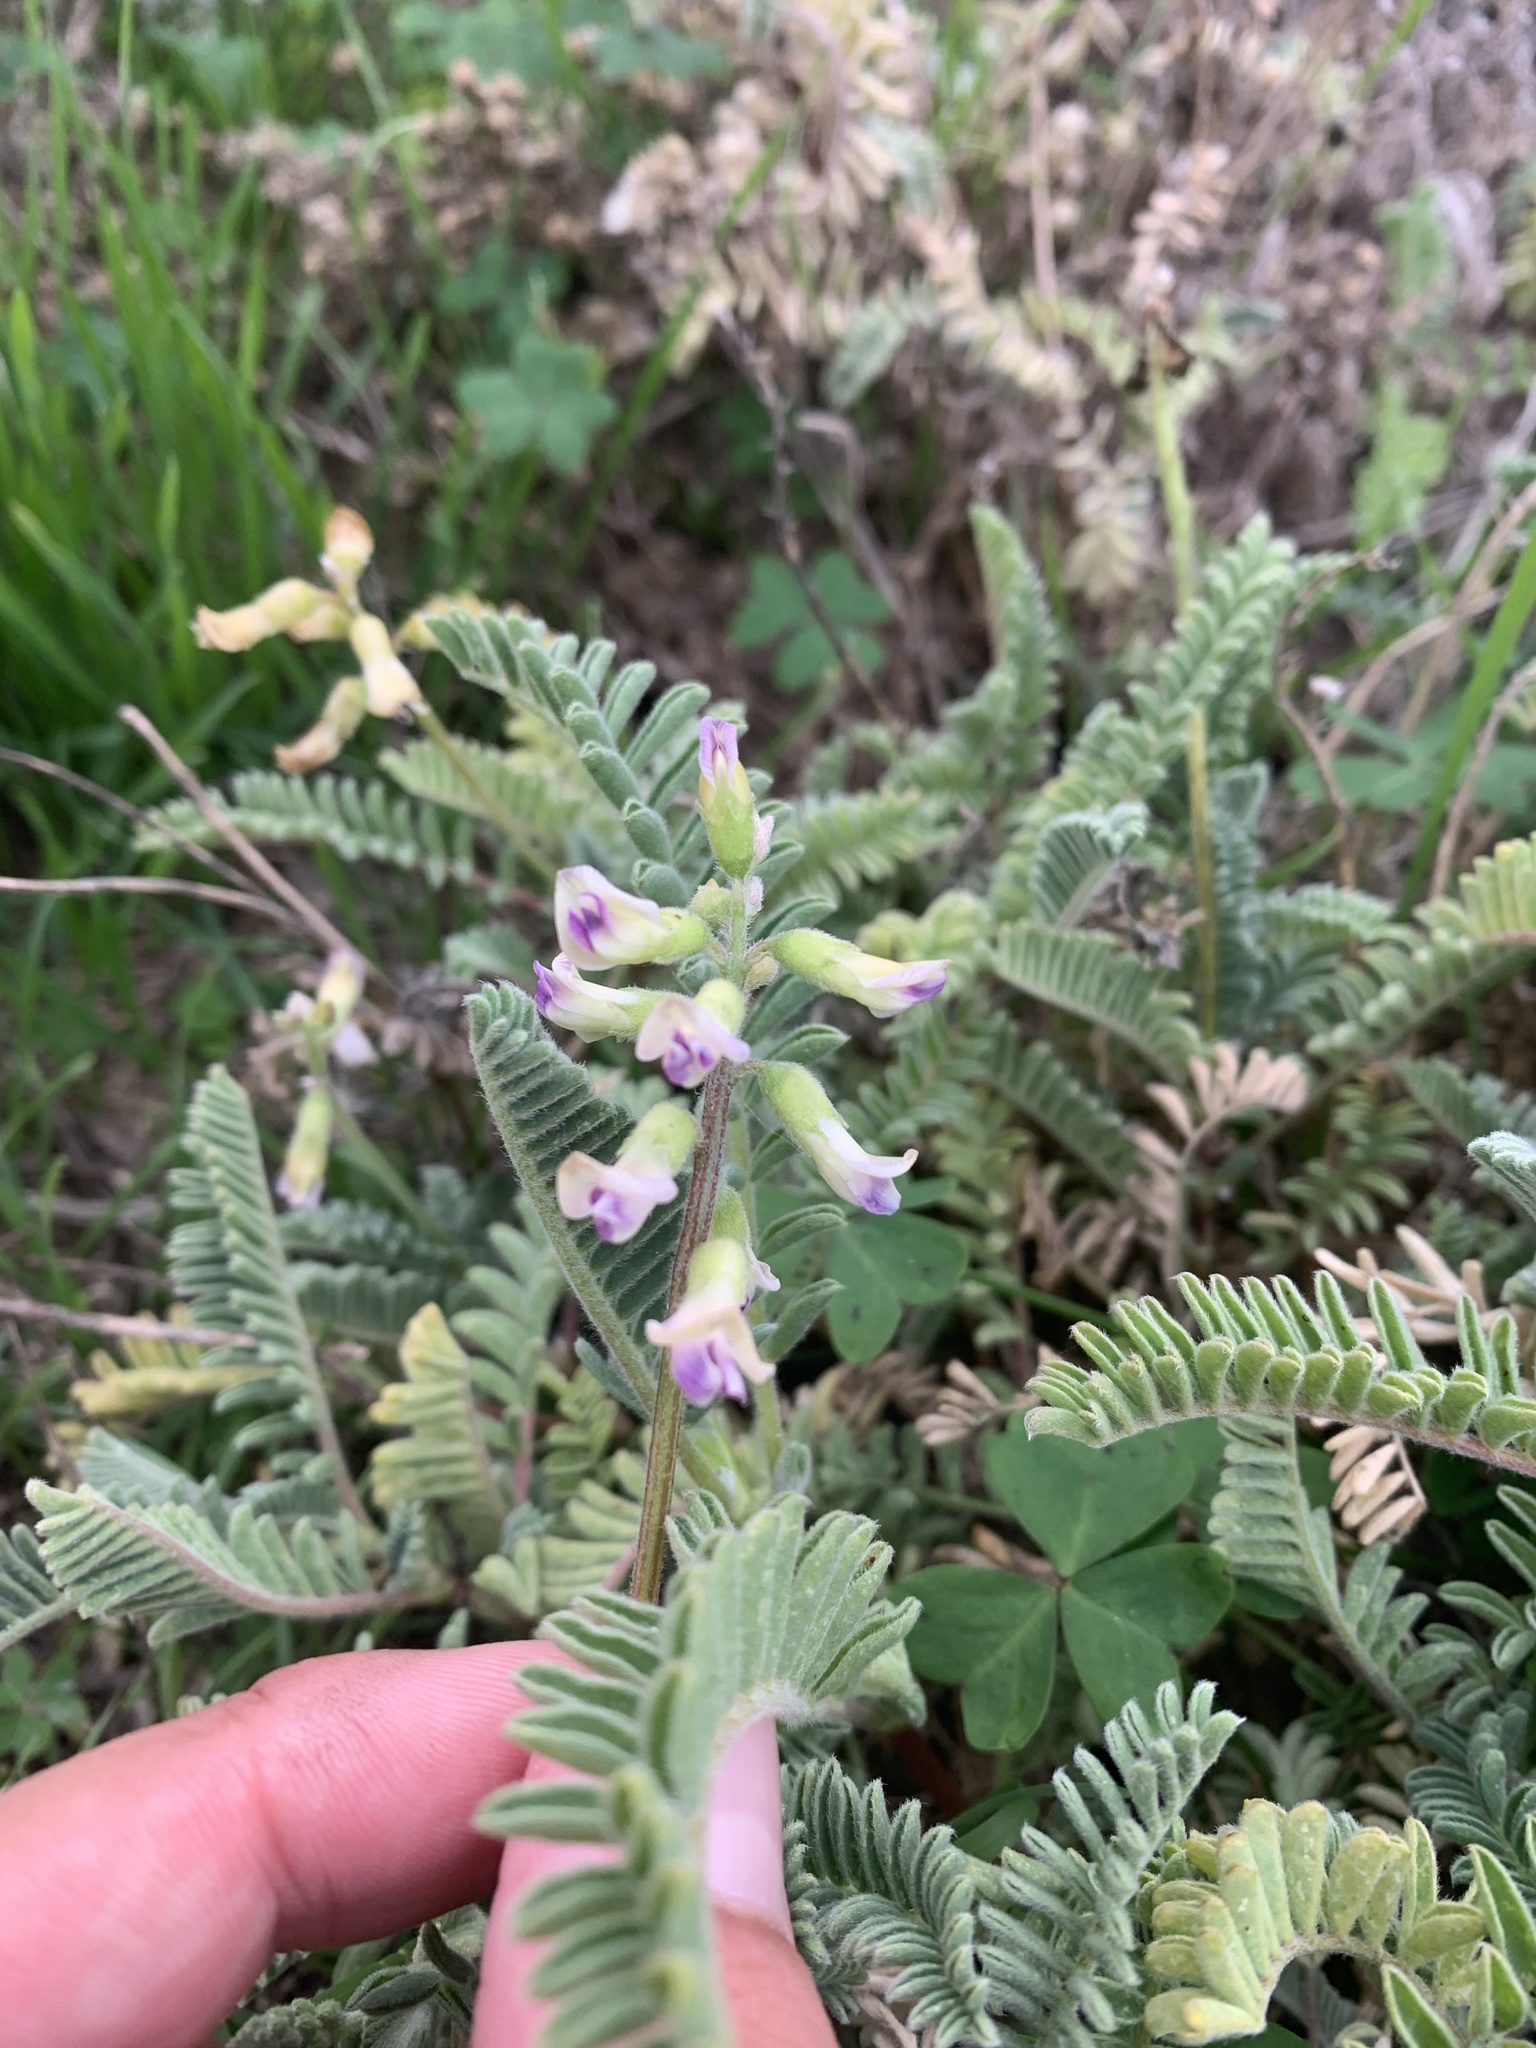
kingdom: Plantae
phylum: Tracheophyta
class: Magnoliopsida
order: Fabales
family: Fabaceae
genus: Astragalus
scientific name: Astragalus nuttallii
